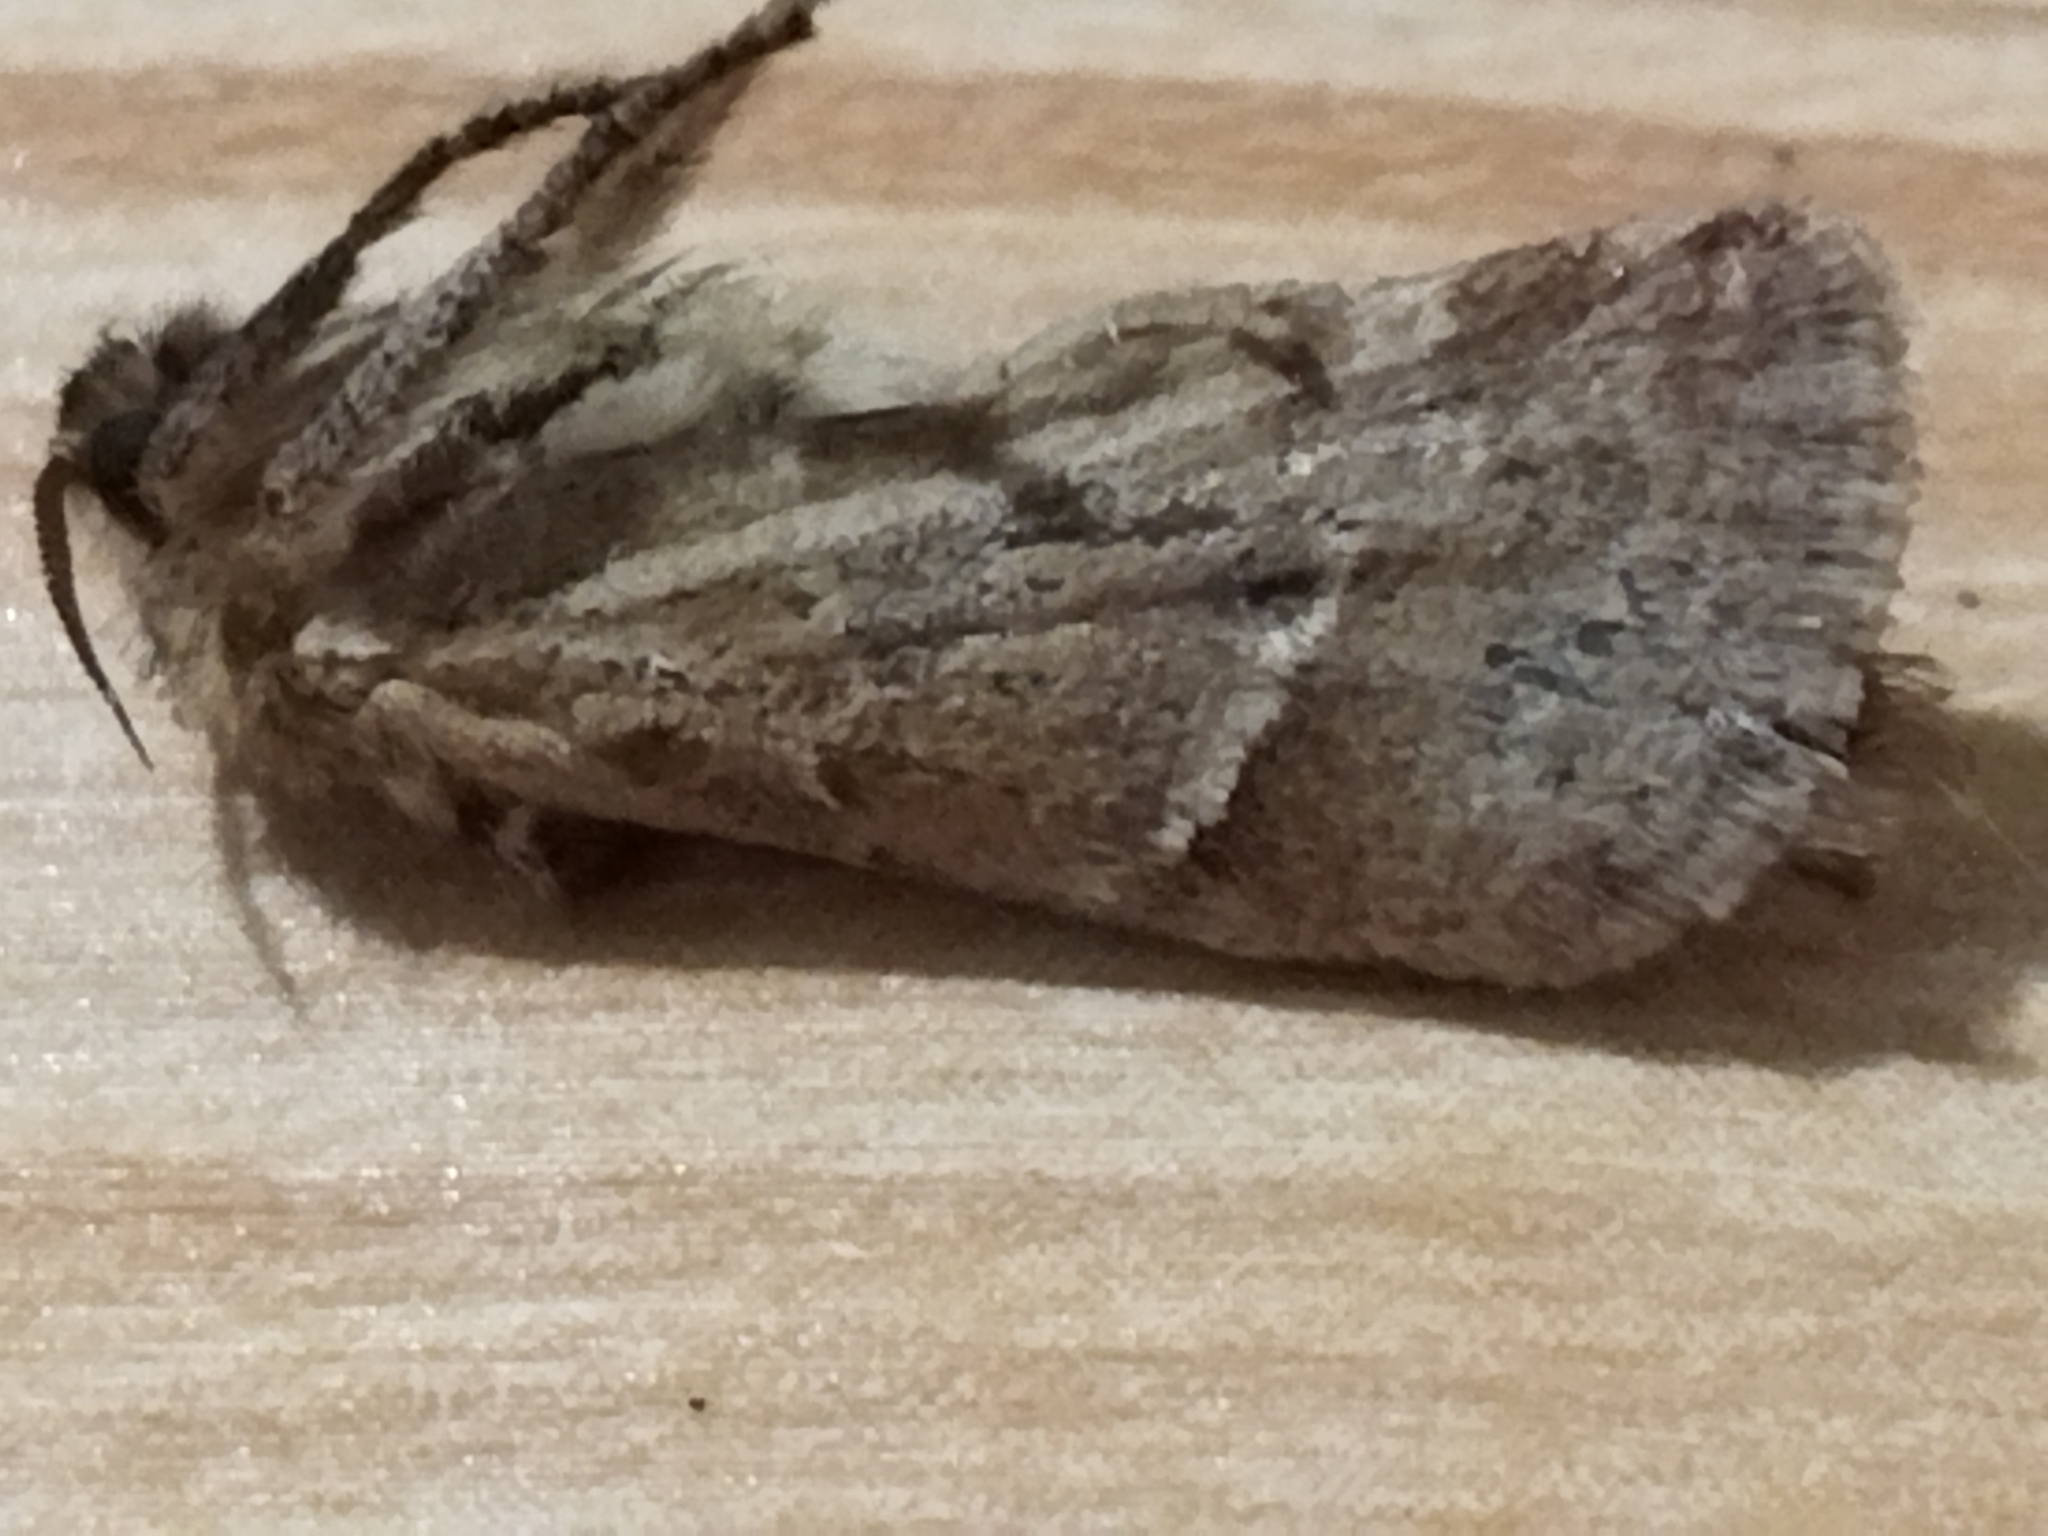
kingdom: Animalia
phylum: Arthropoda
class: Insecta
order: Lepidoptera
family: Hepialidae
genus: Triodia
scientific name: Triodia amasinus
